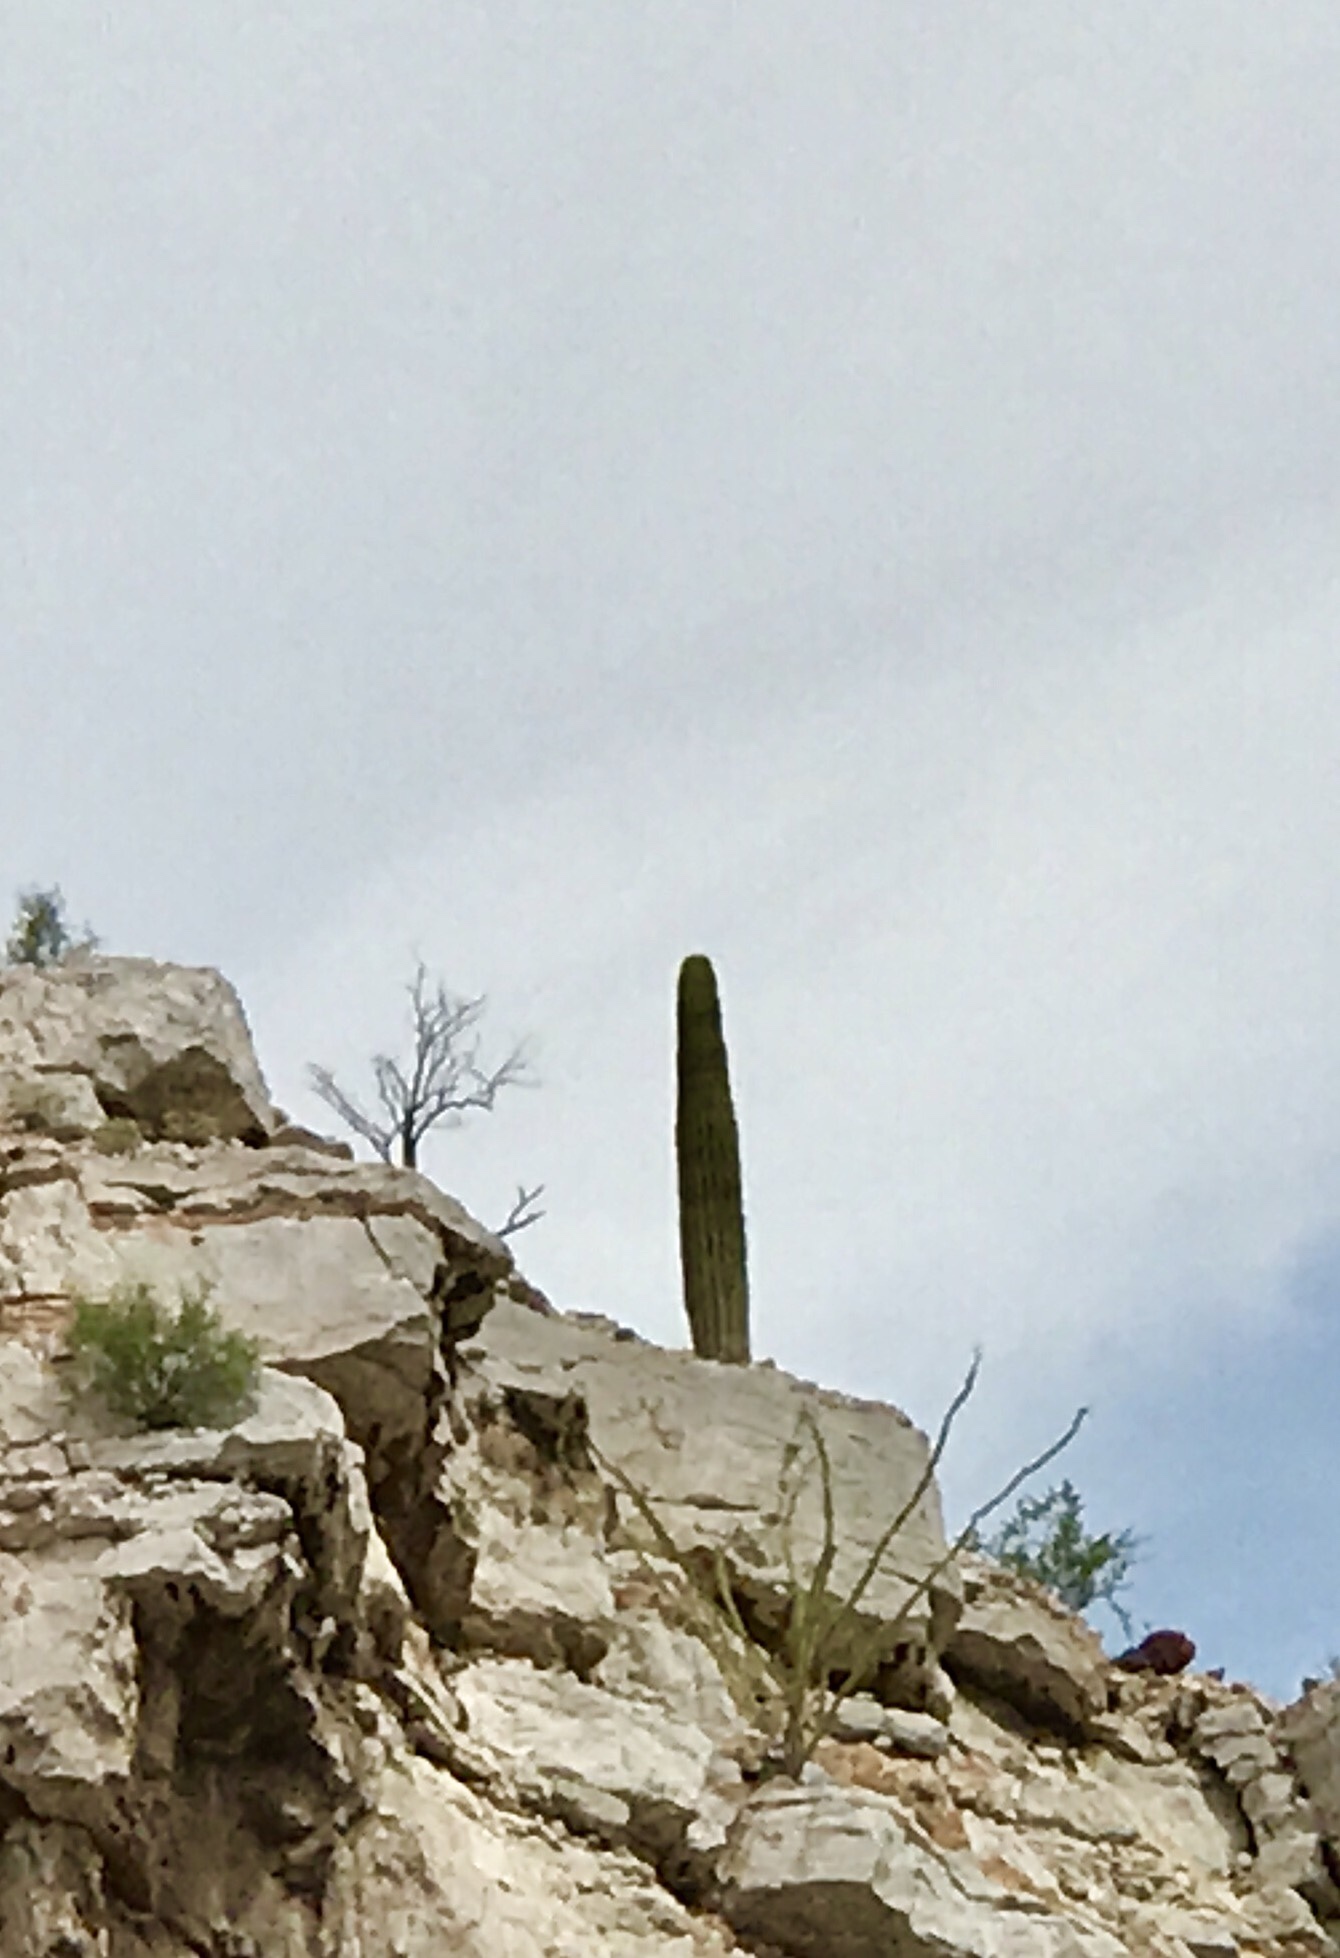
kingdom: Plantae
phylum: Tracheophyta
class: Magnoliopsida
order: Caryophyllales
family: Cactaceae
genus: Carnegiea
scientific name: Carnegiea gigantea
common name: Saguaro
